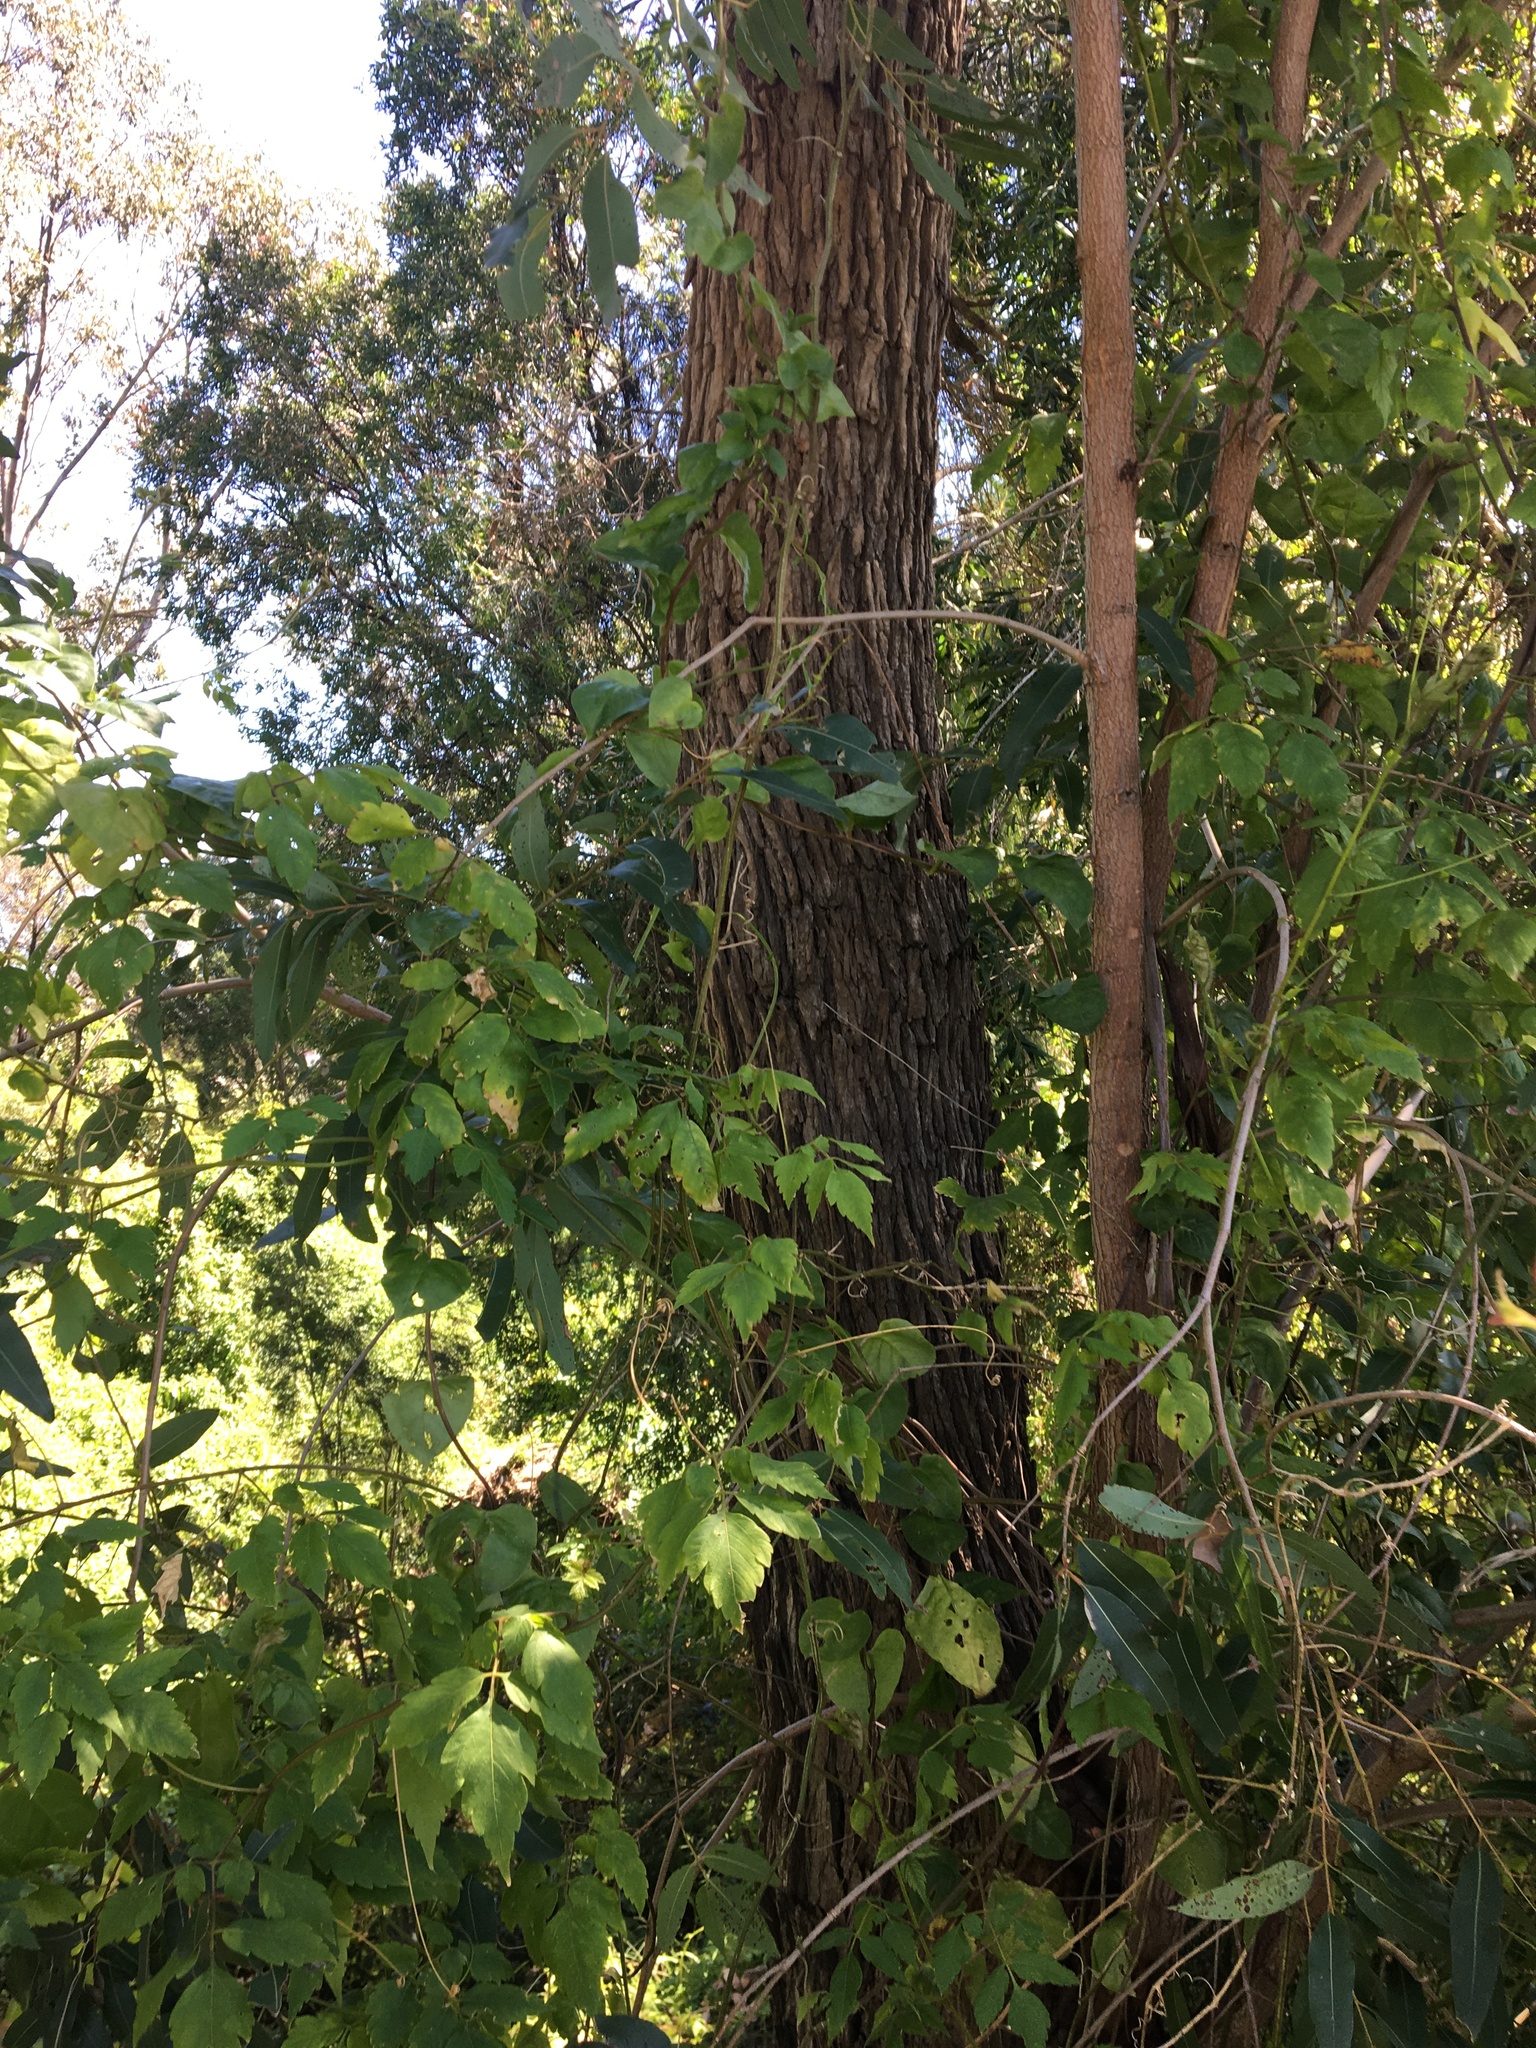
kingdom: Plantae
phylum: Tracheophyta
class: Magnoliopsida
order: Myrtales
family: Myrtaceae
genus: Angophora
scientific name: Angophora floribunda
